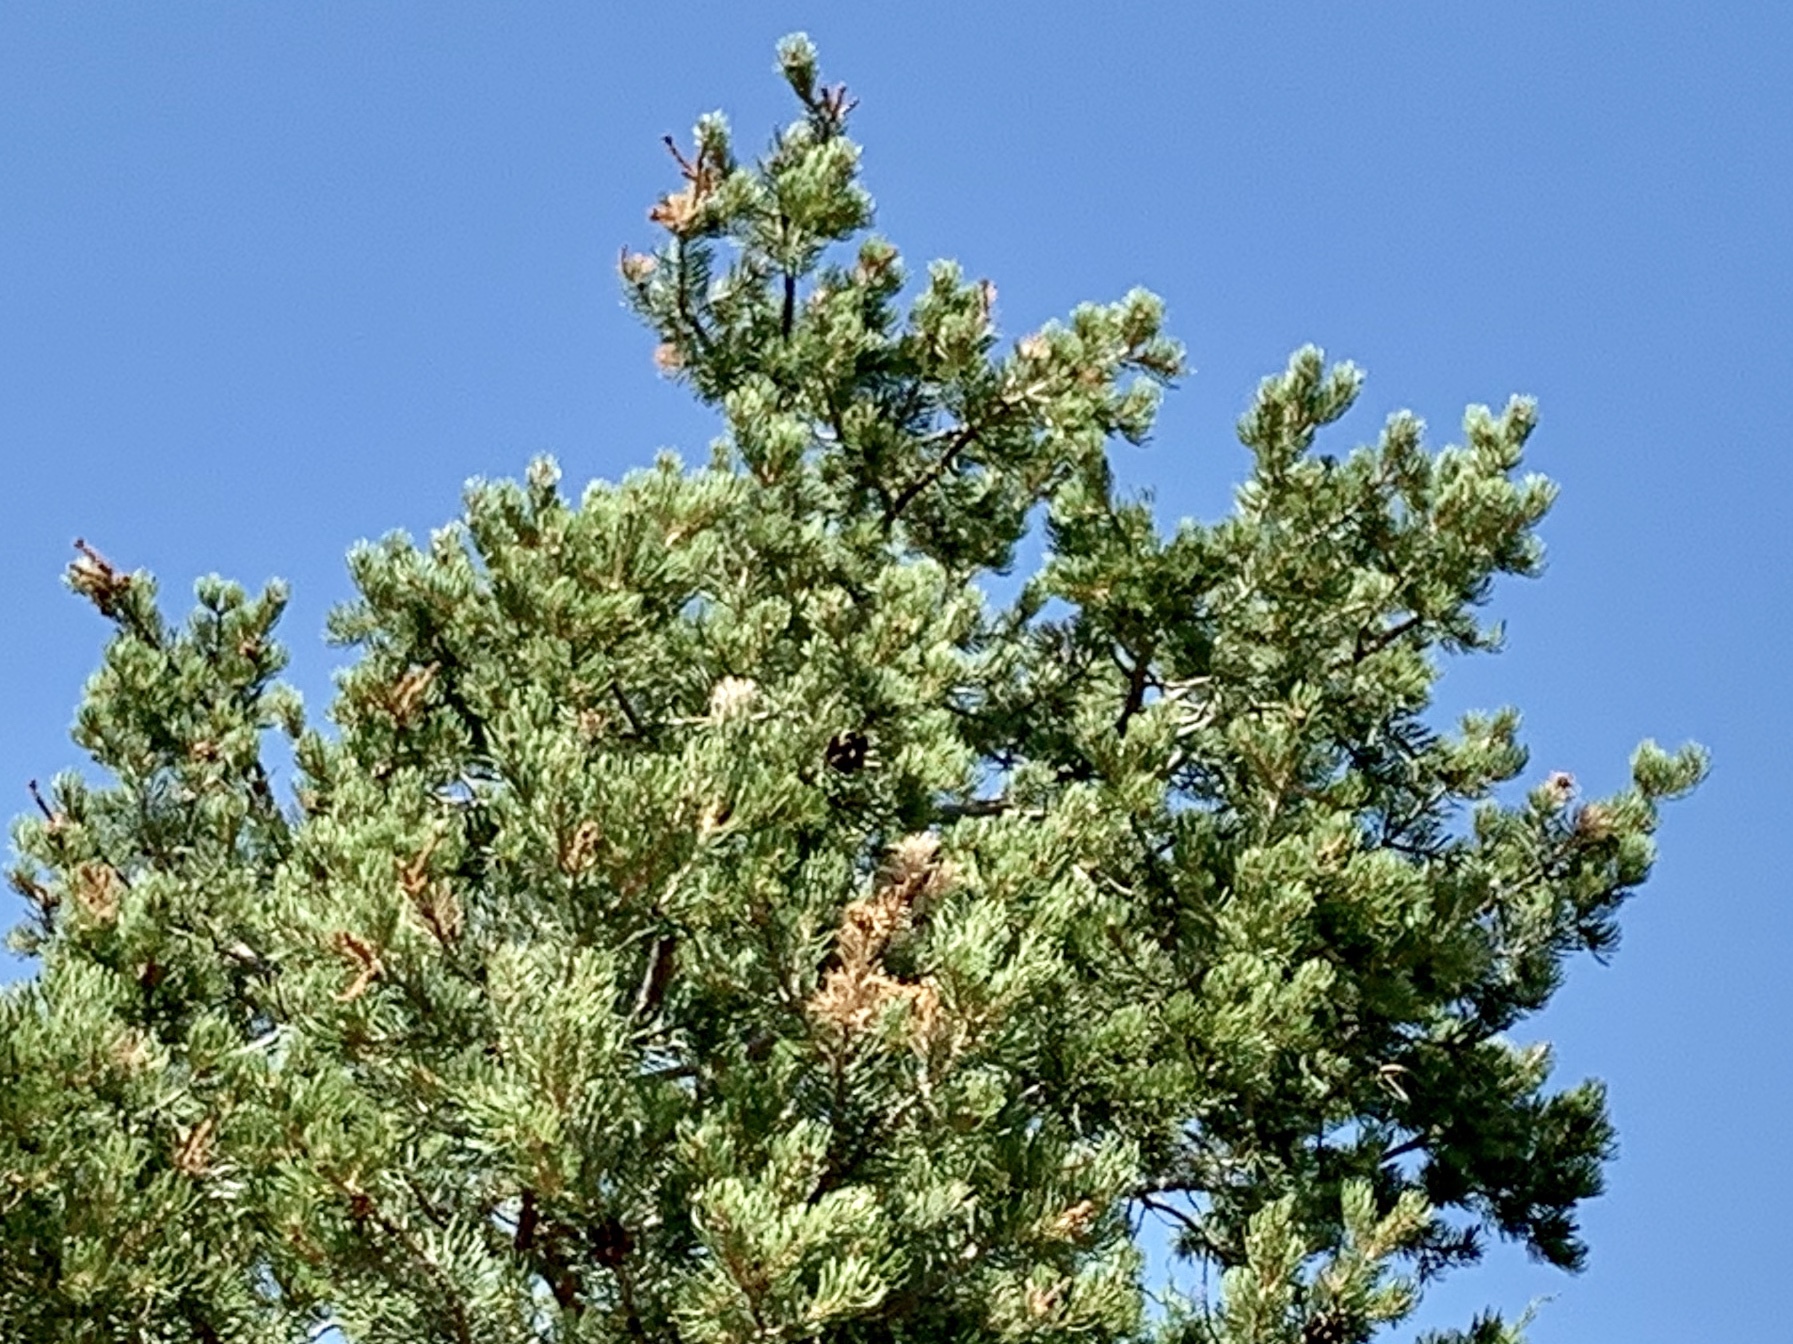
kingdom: Plantae
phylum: Tracheophyta
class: Pinopsida
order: Pinales
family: Pinaceae
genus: Pinus
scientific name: Pinus edulis
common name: Colorado pinyon
